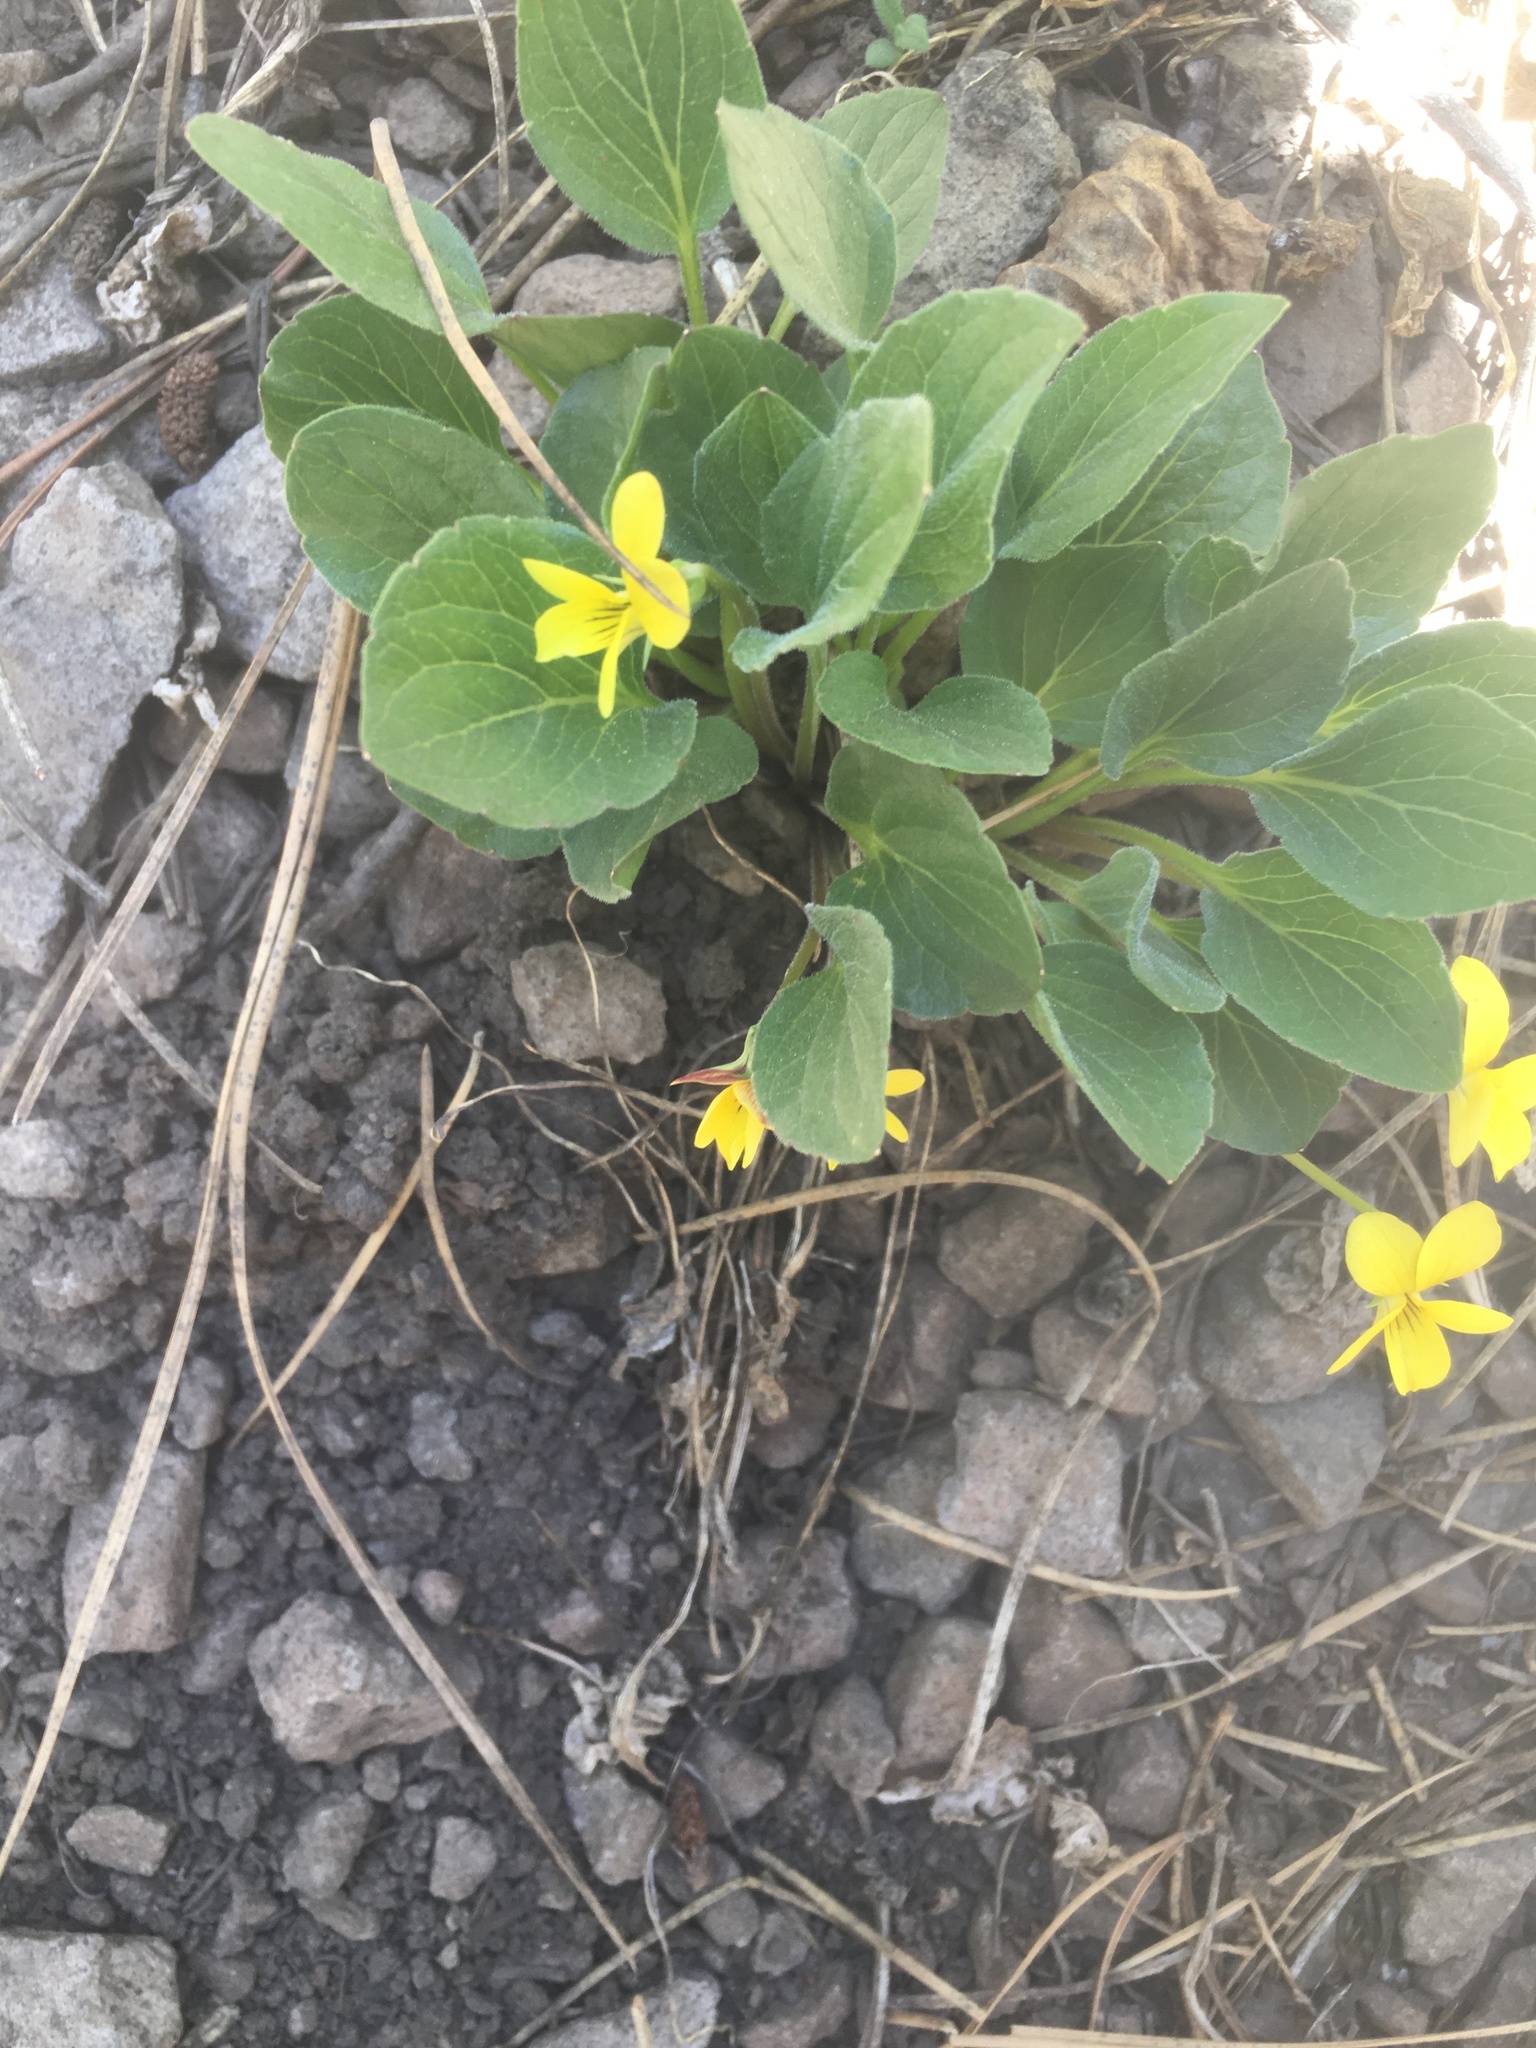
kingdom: Plantae
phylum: Tracheophyta
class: Magnoliopsida
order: Malpighiales
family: Violaceae
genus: Viola
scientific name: Viola praemorsa
